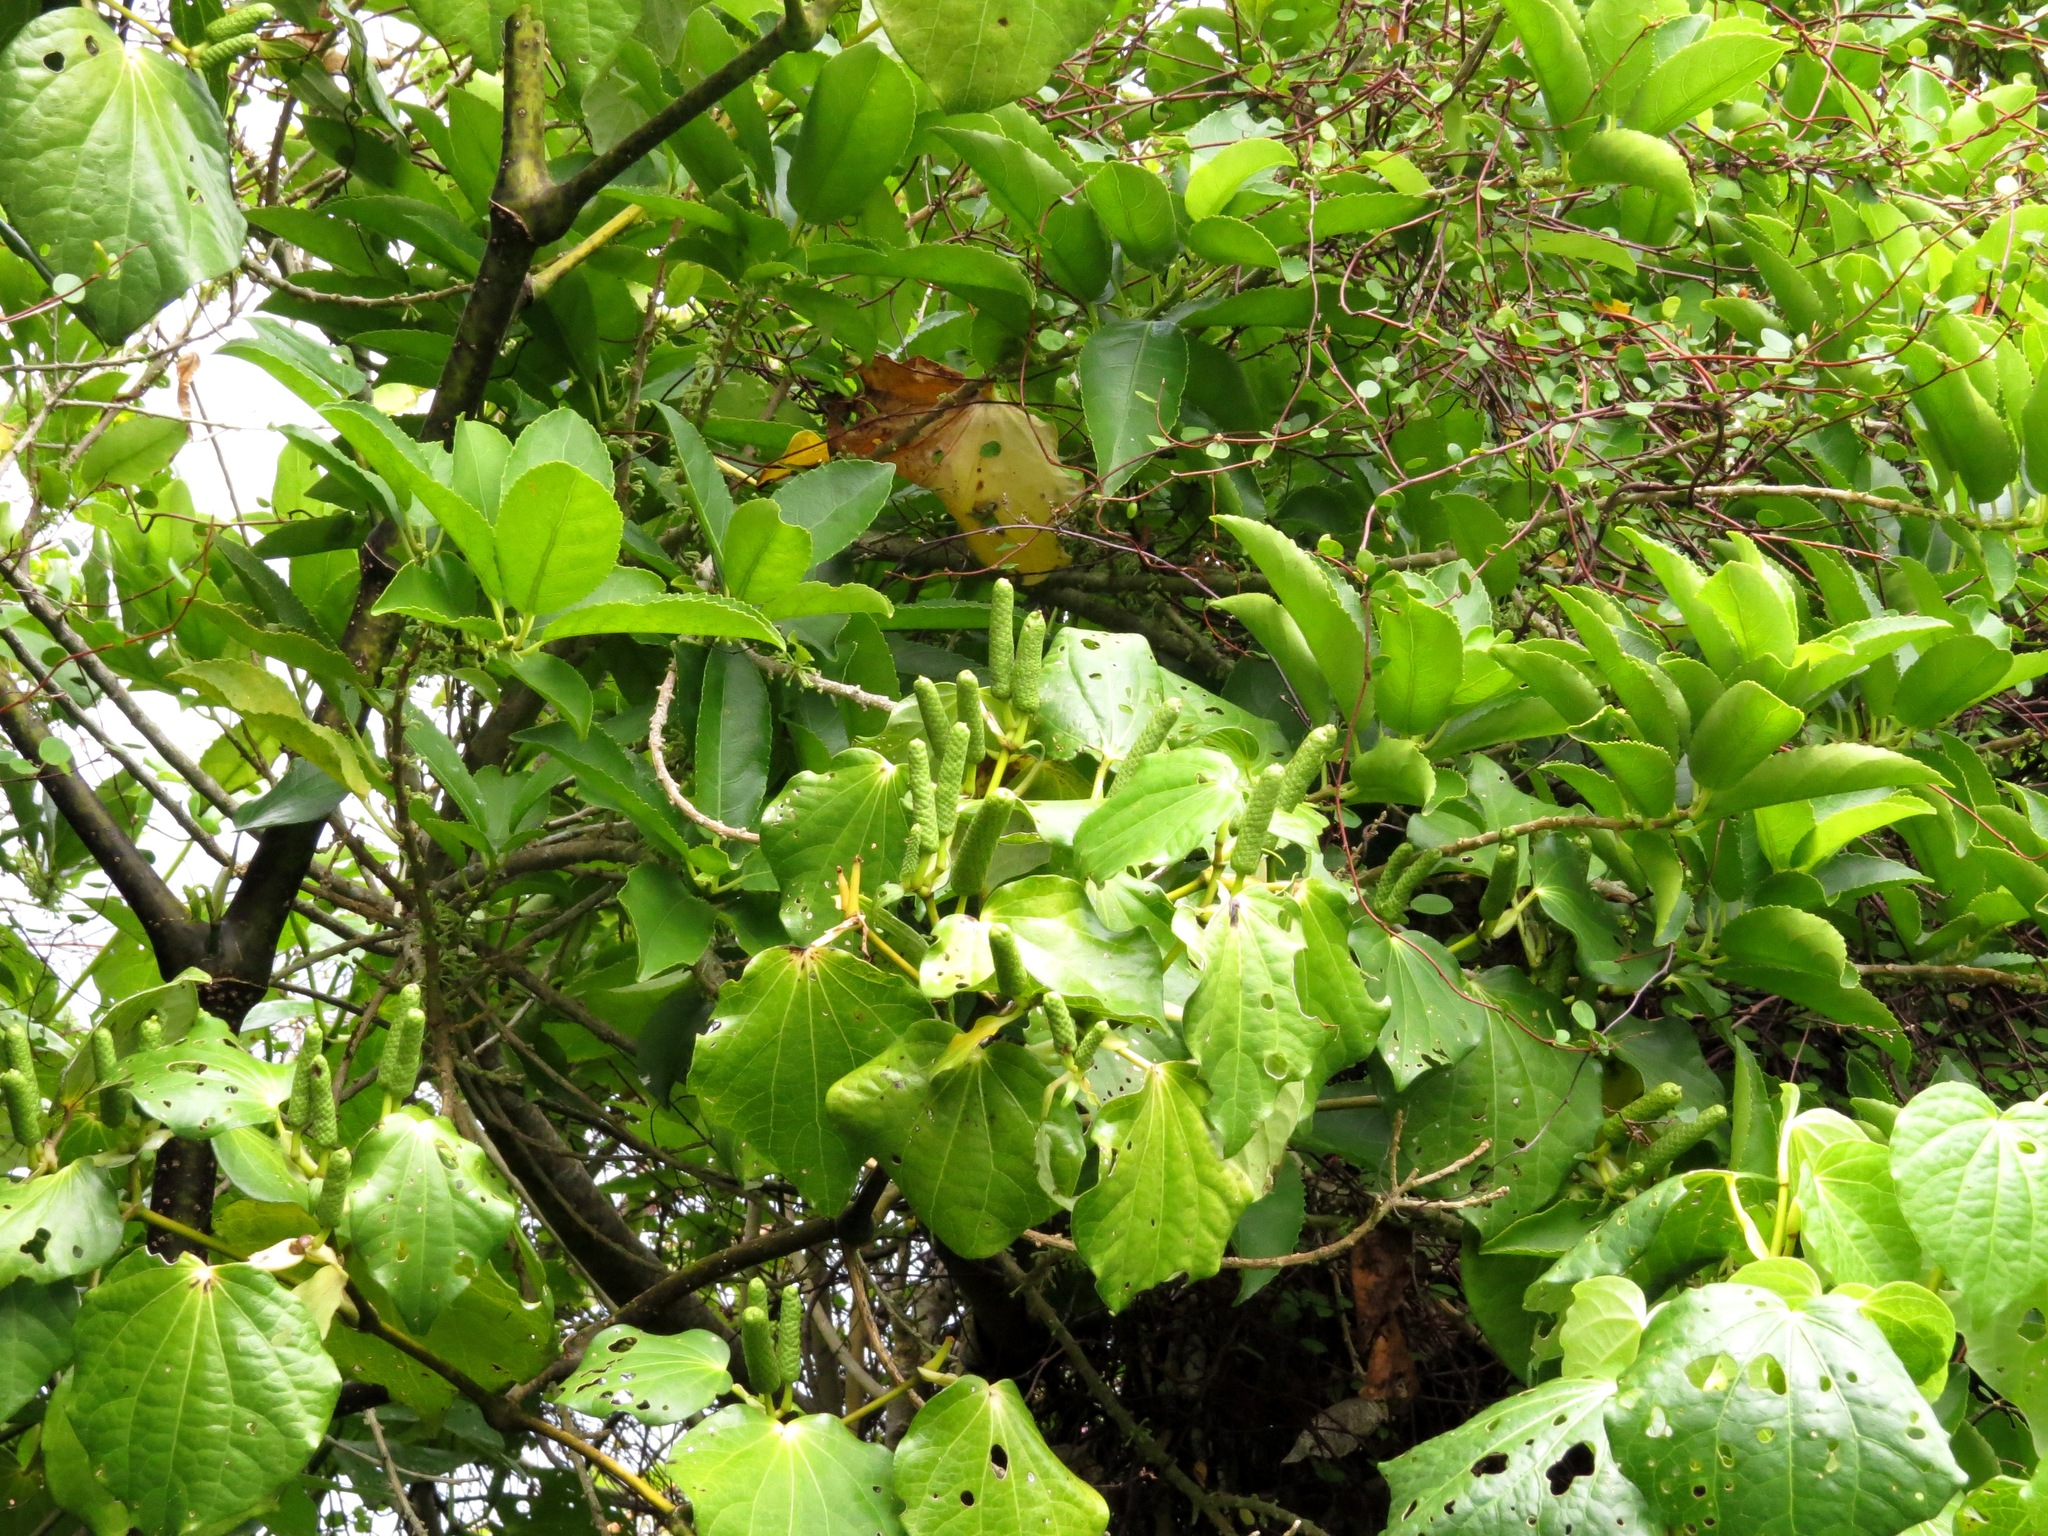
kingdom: Plantae
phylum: Tracheophyta
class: Magnoliopsida
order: Malpighiales
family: Violaceae
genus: Melicytus
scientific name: Melicytus ramiflorus
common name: Mahoe
